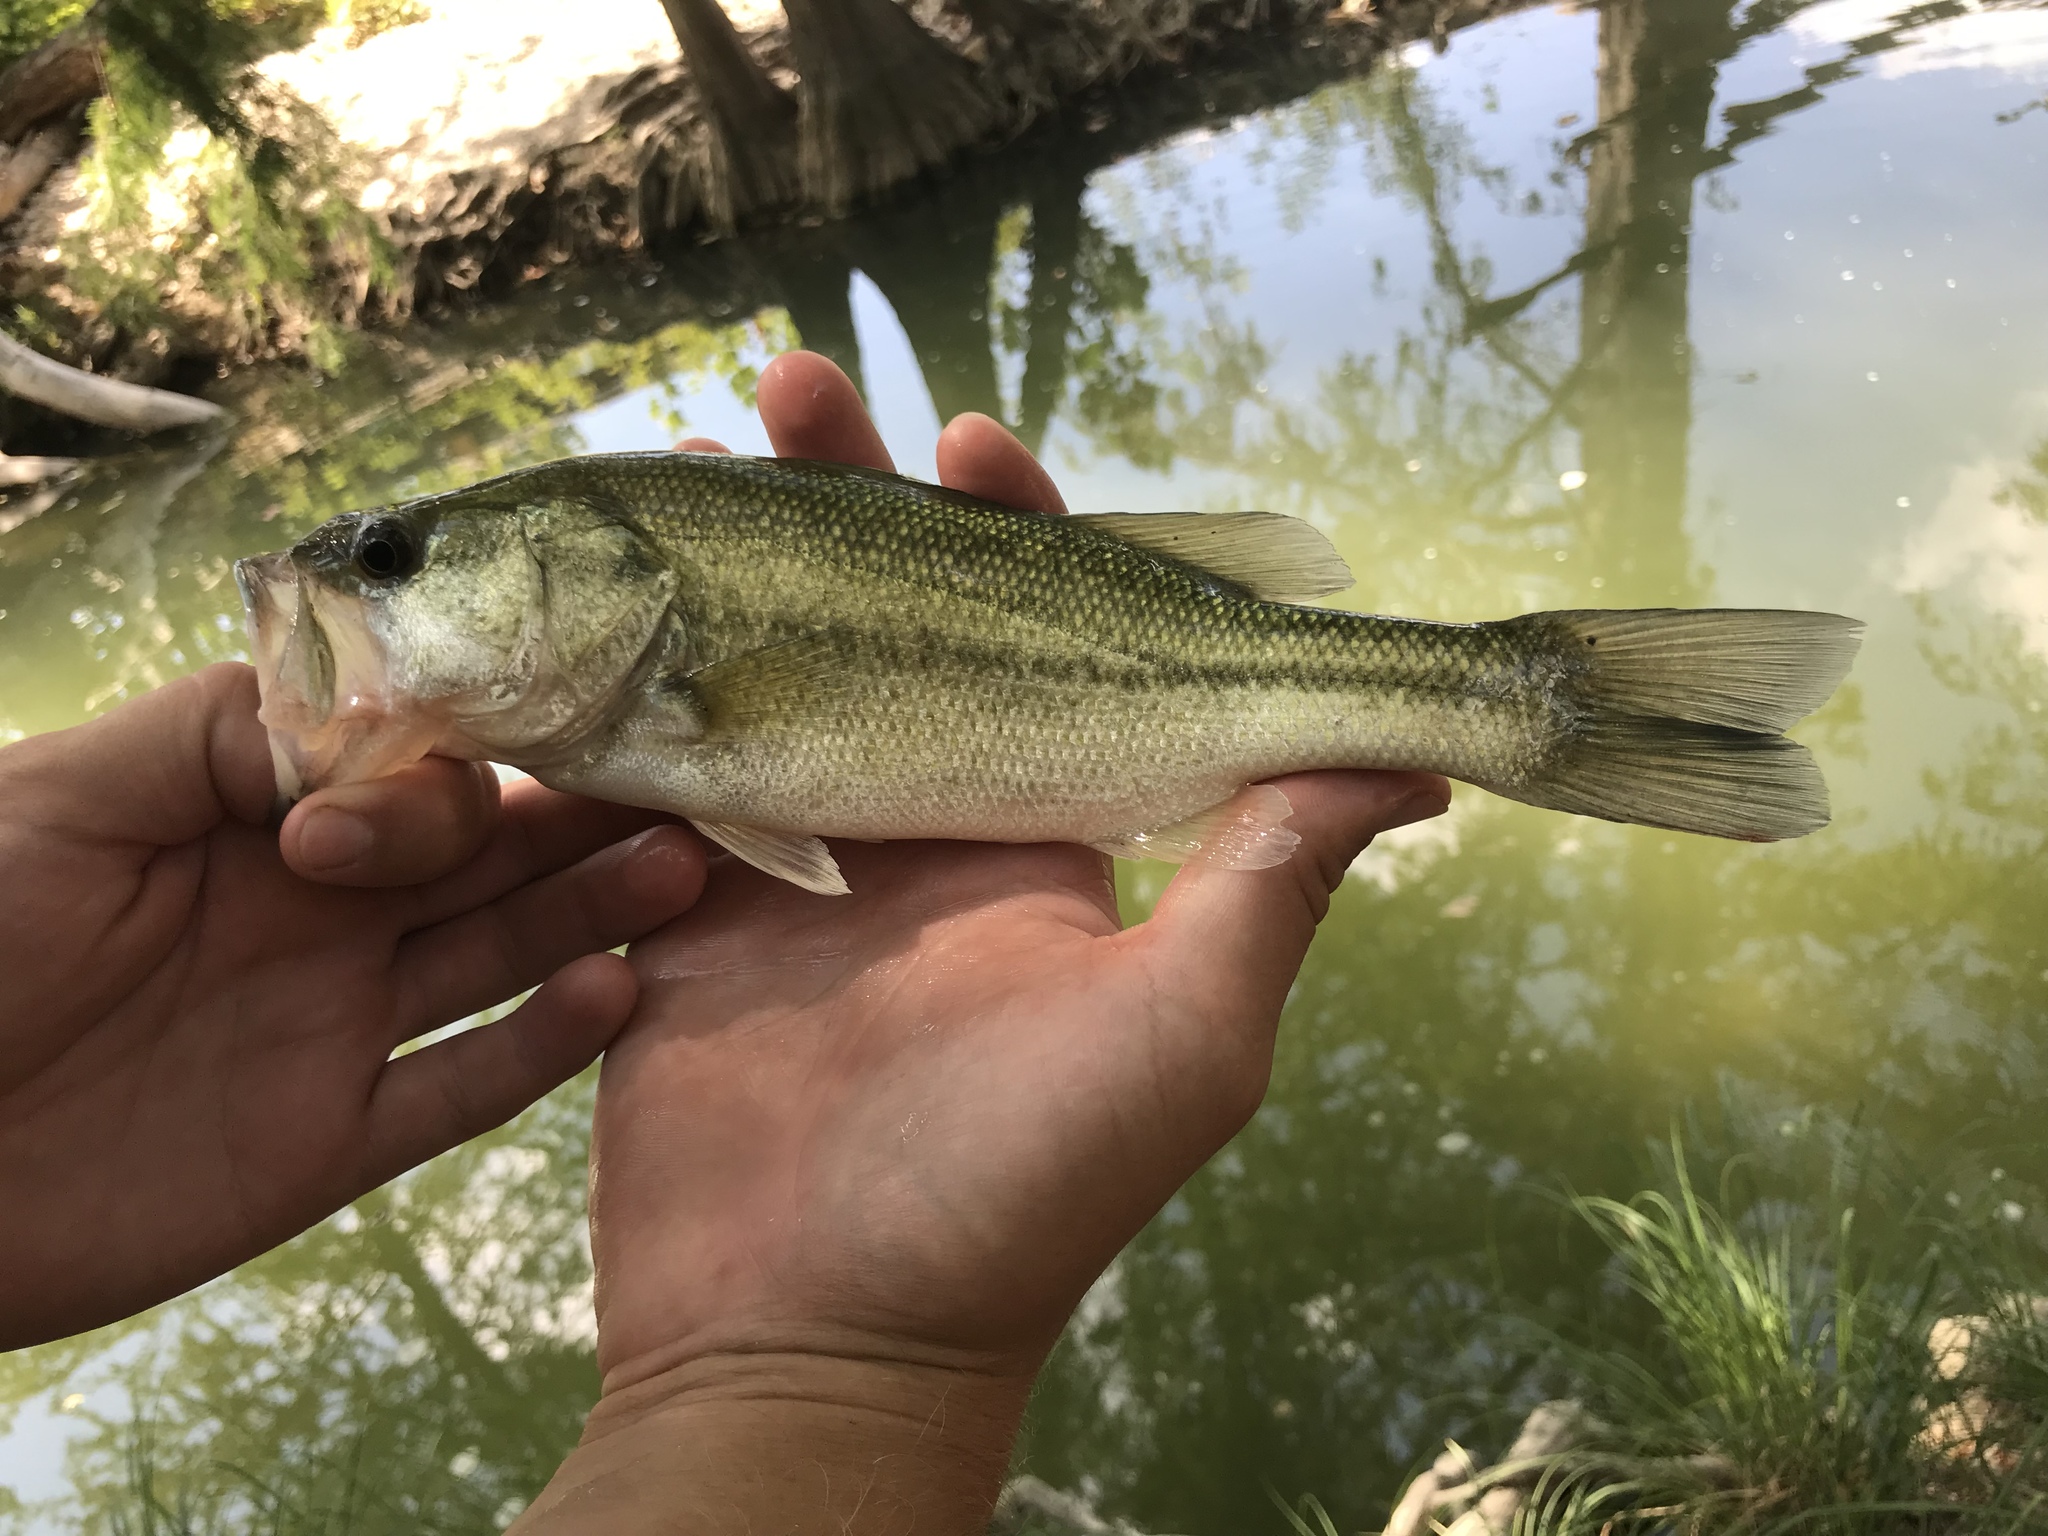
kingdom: Animalia
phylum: Chordata
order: Perciformes
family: Centrarchidae
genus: Micropterus
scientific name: Micropterus
